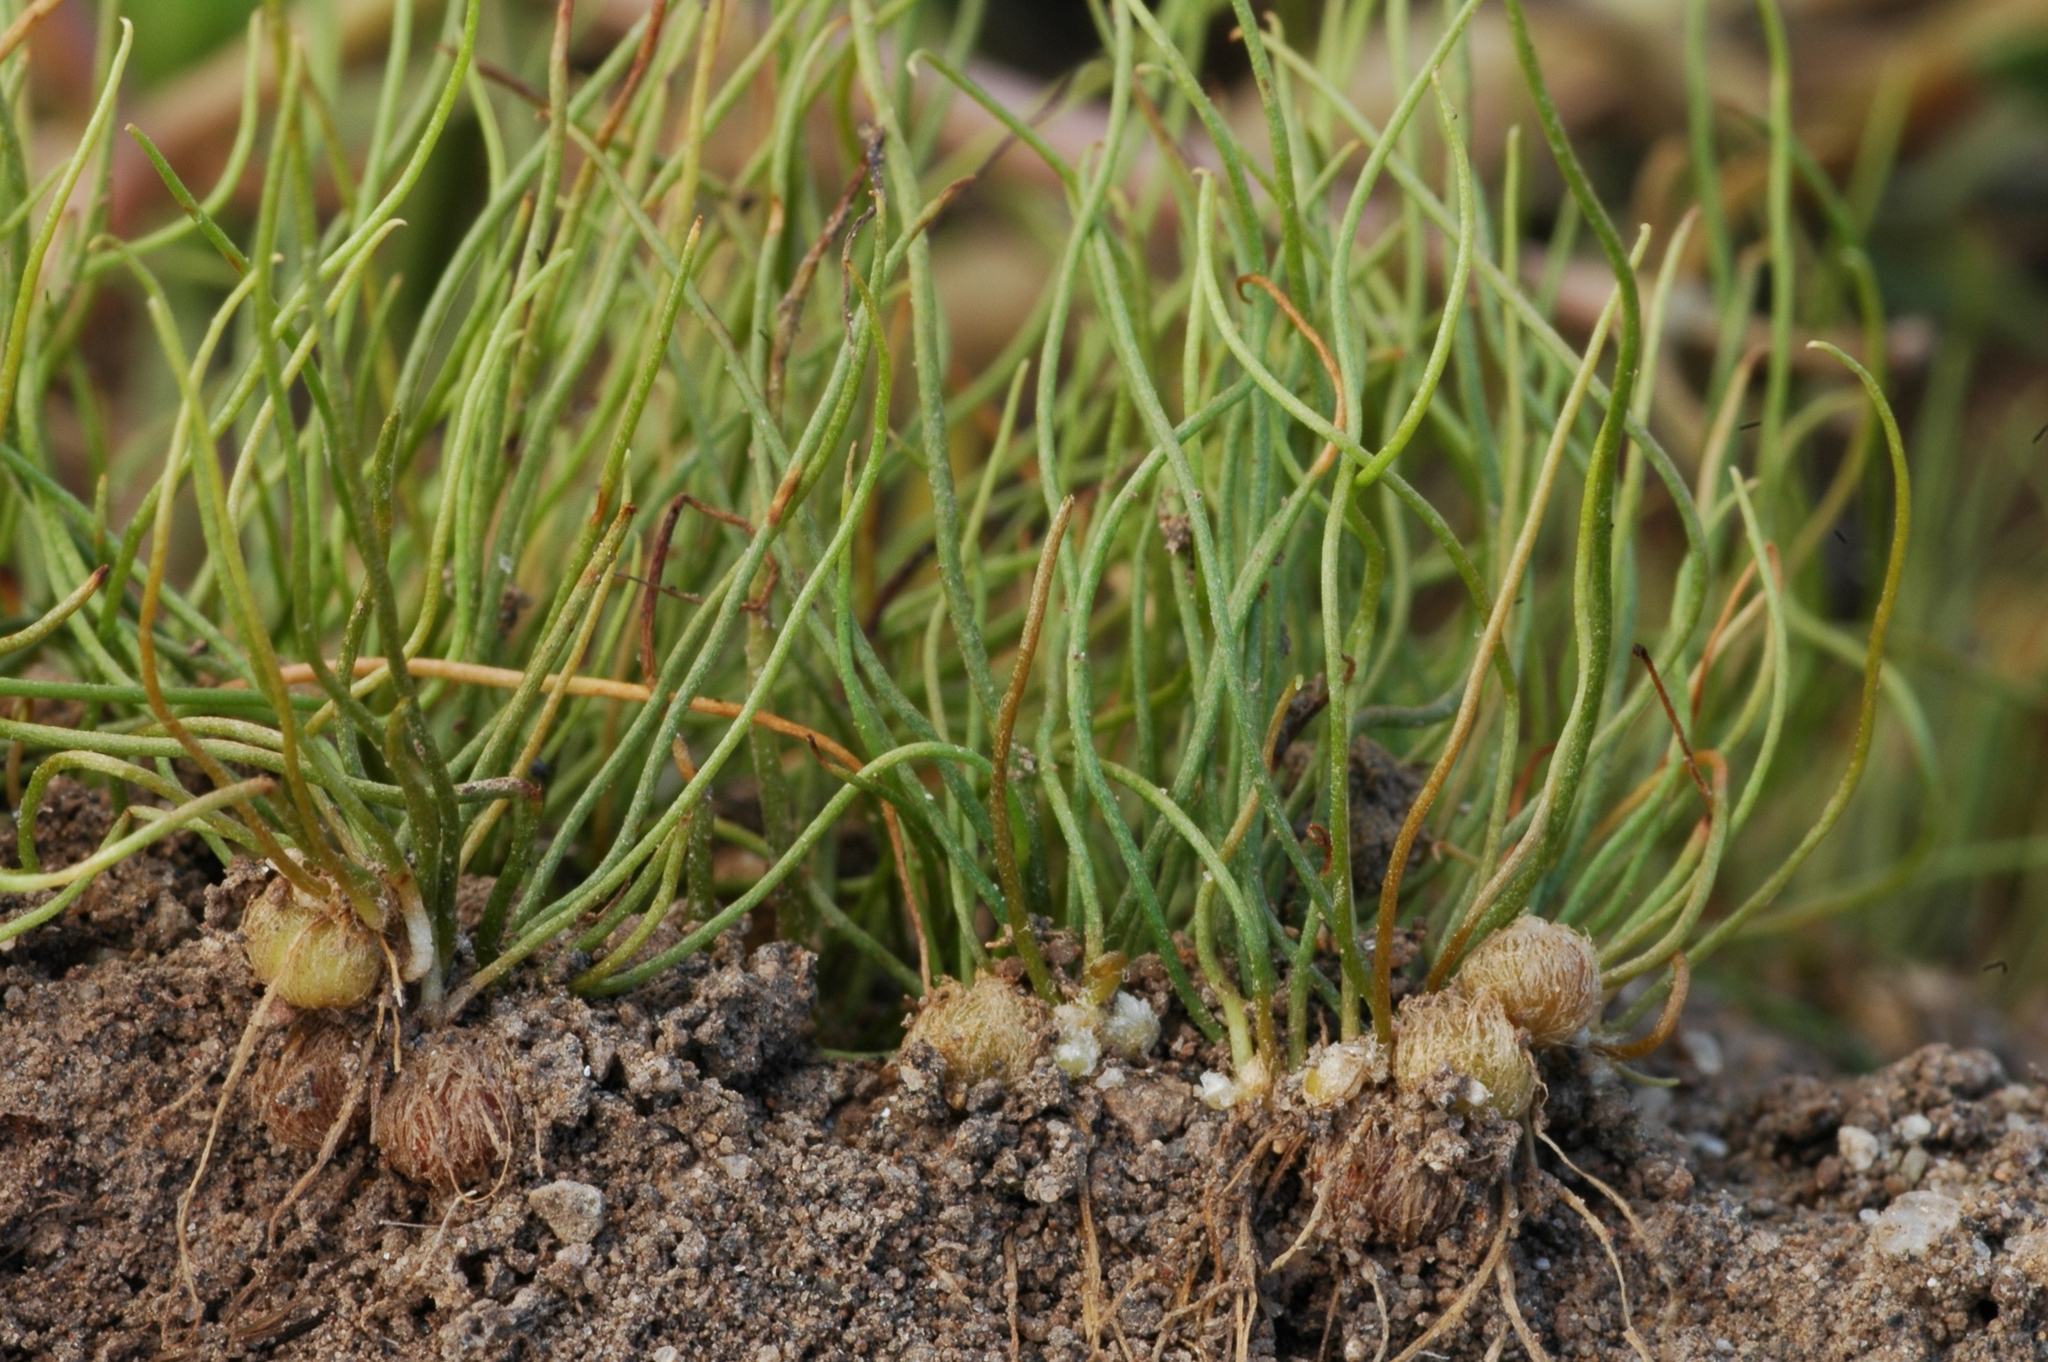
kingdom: Plantae
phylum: Tracheophyta
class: Polypodiopsida
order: Salviniales
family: Marsileaceae
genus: Pilularia
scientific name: Pilularia americana
